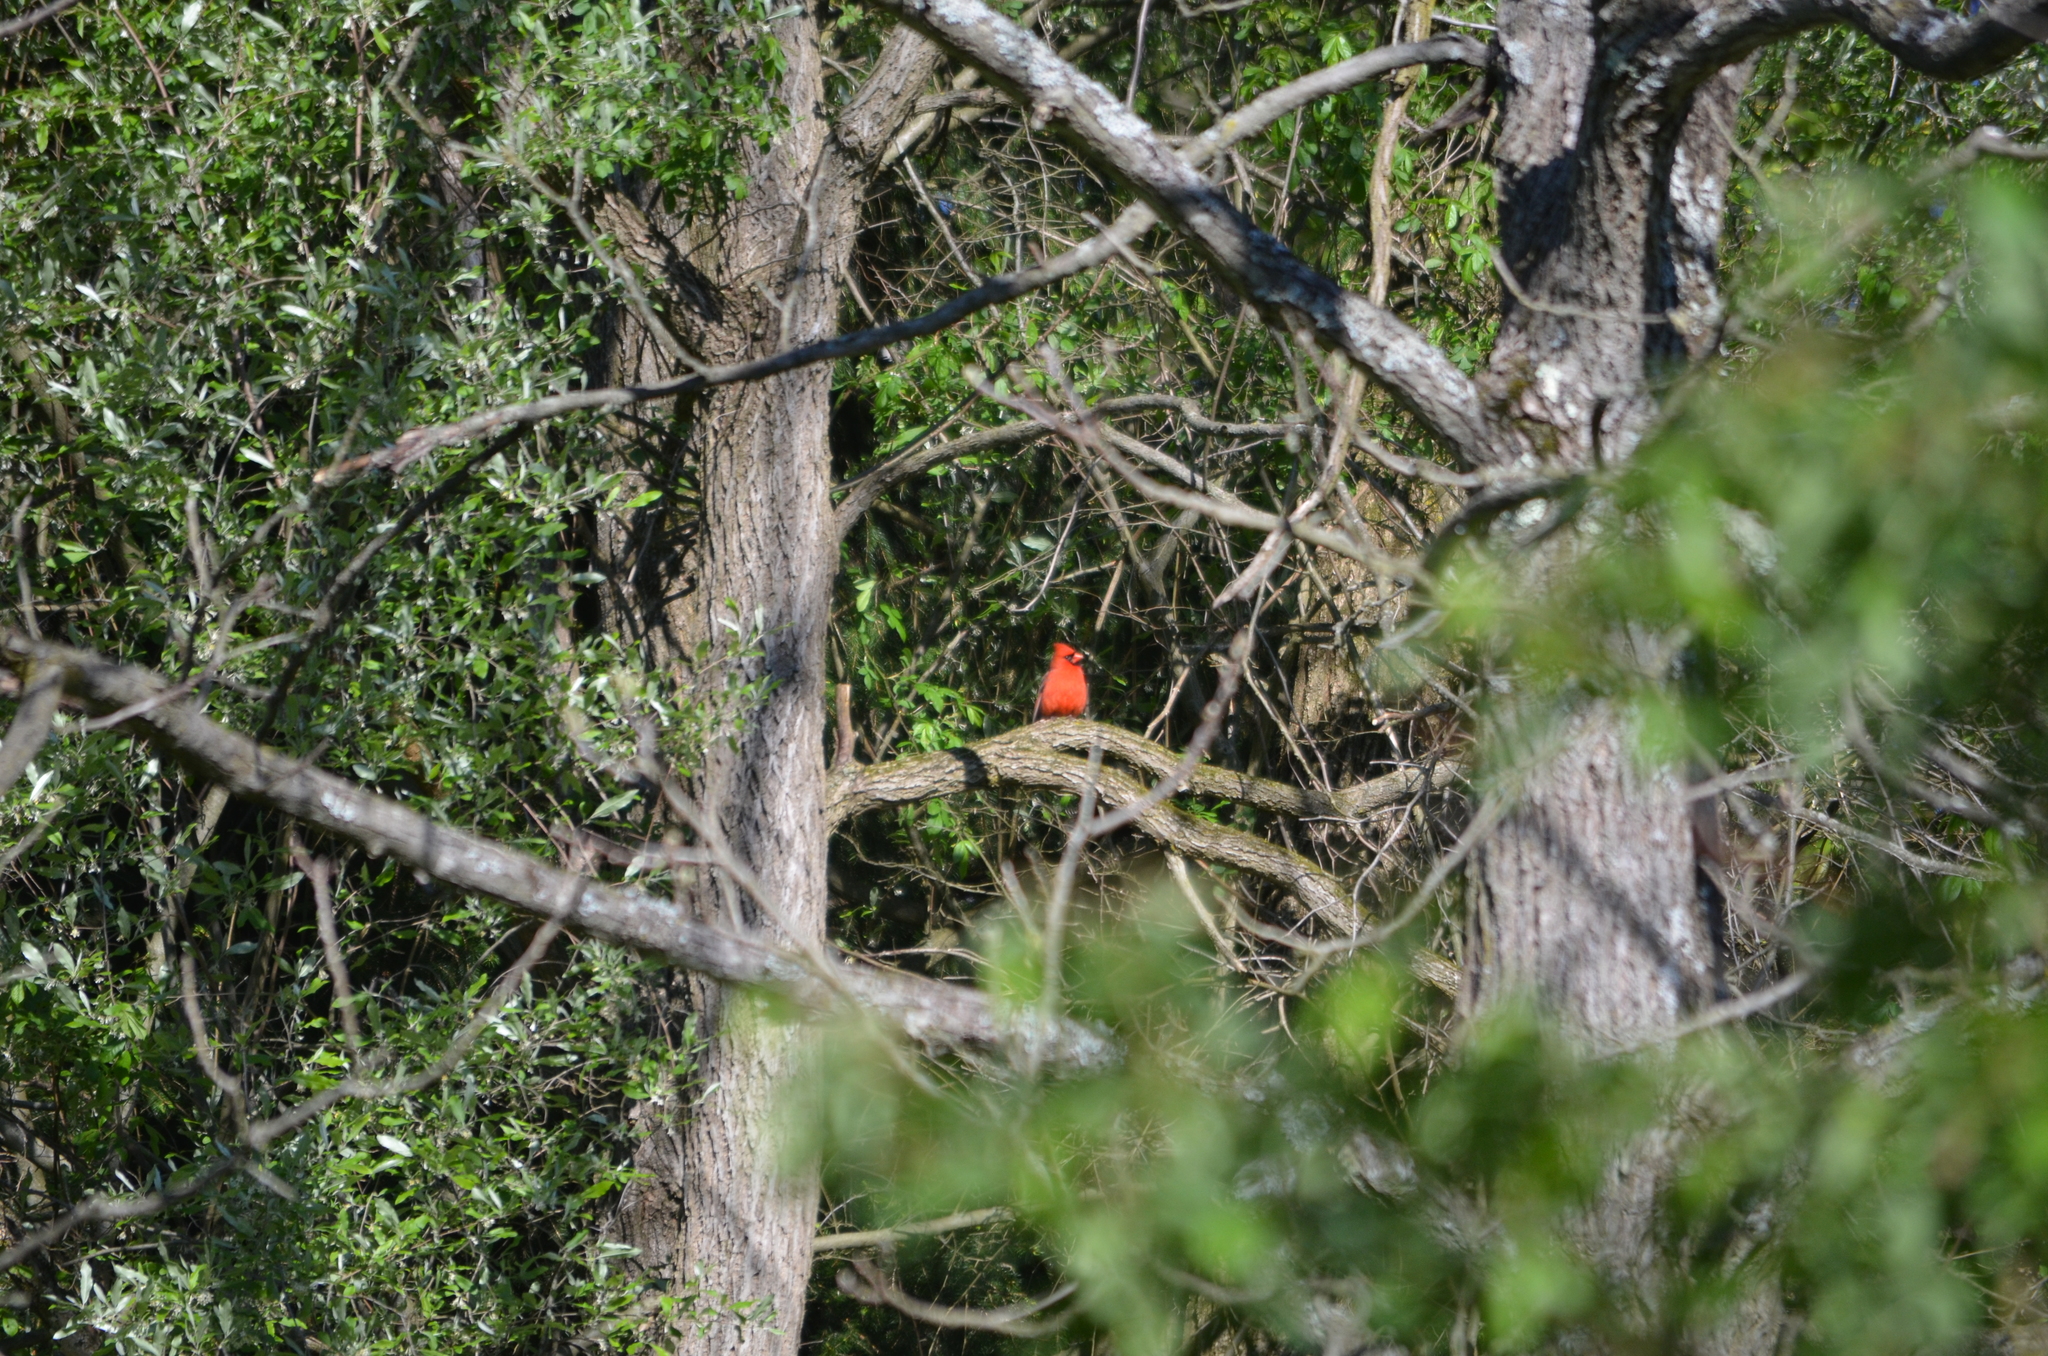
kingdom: Animalia
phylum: Chordata
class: Aves
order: Passeriformes
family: Cardinalidae
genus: Cardinalis
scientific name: Cardinalis cardinalis
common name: Northern cardinal
